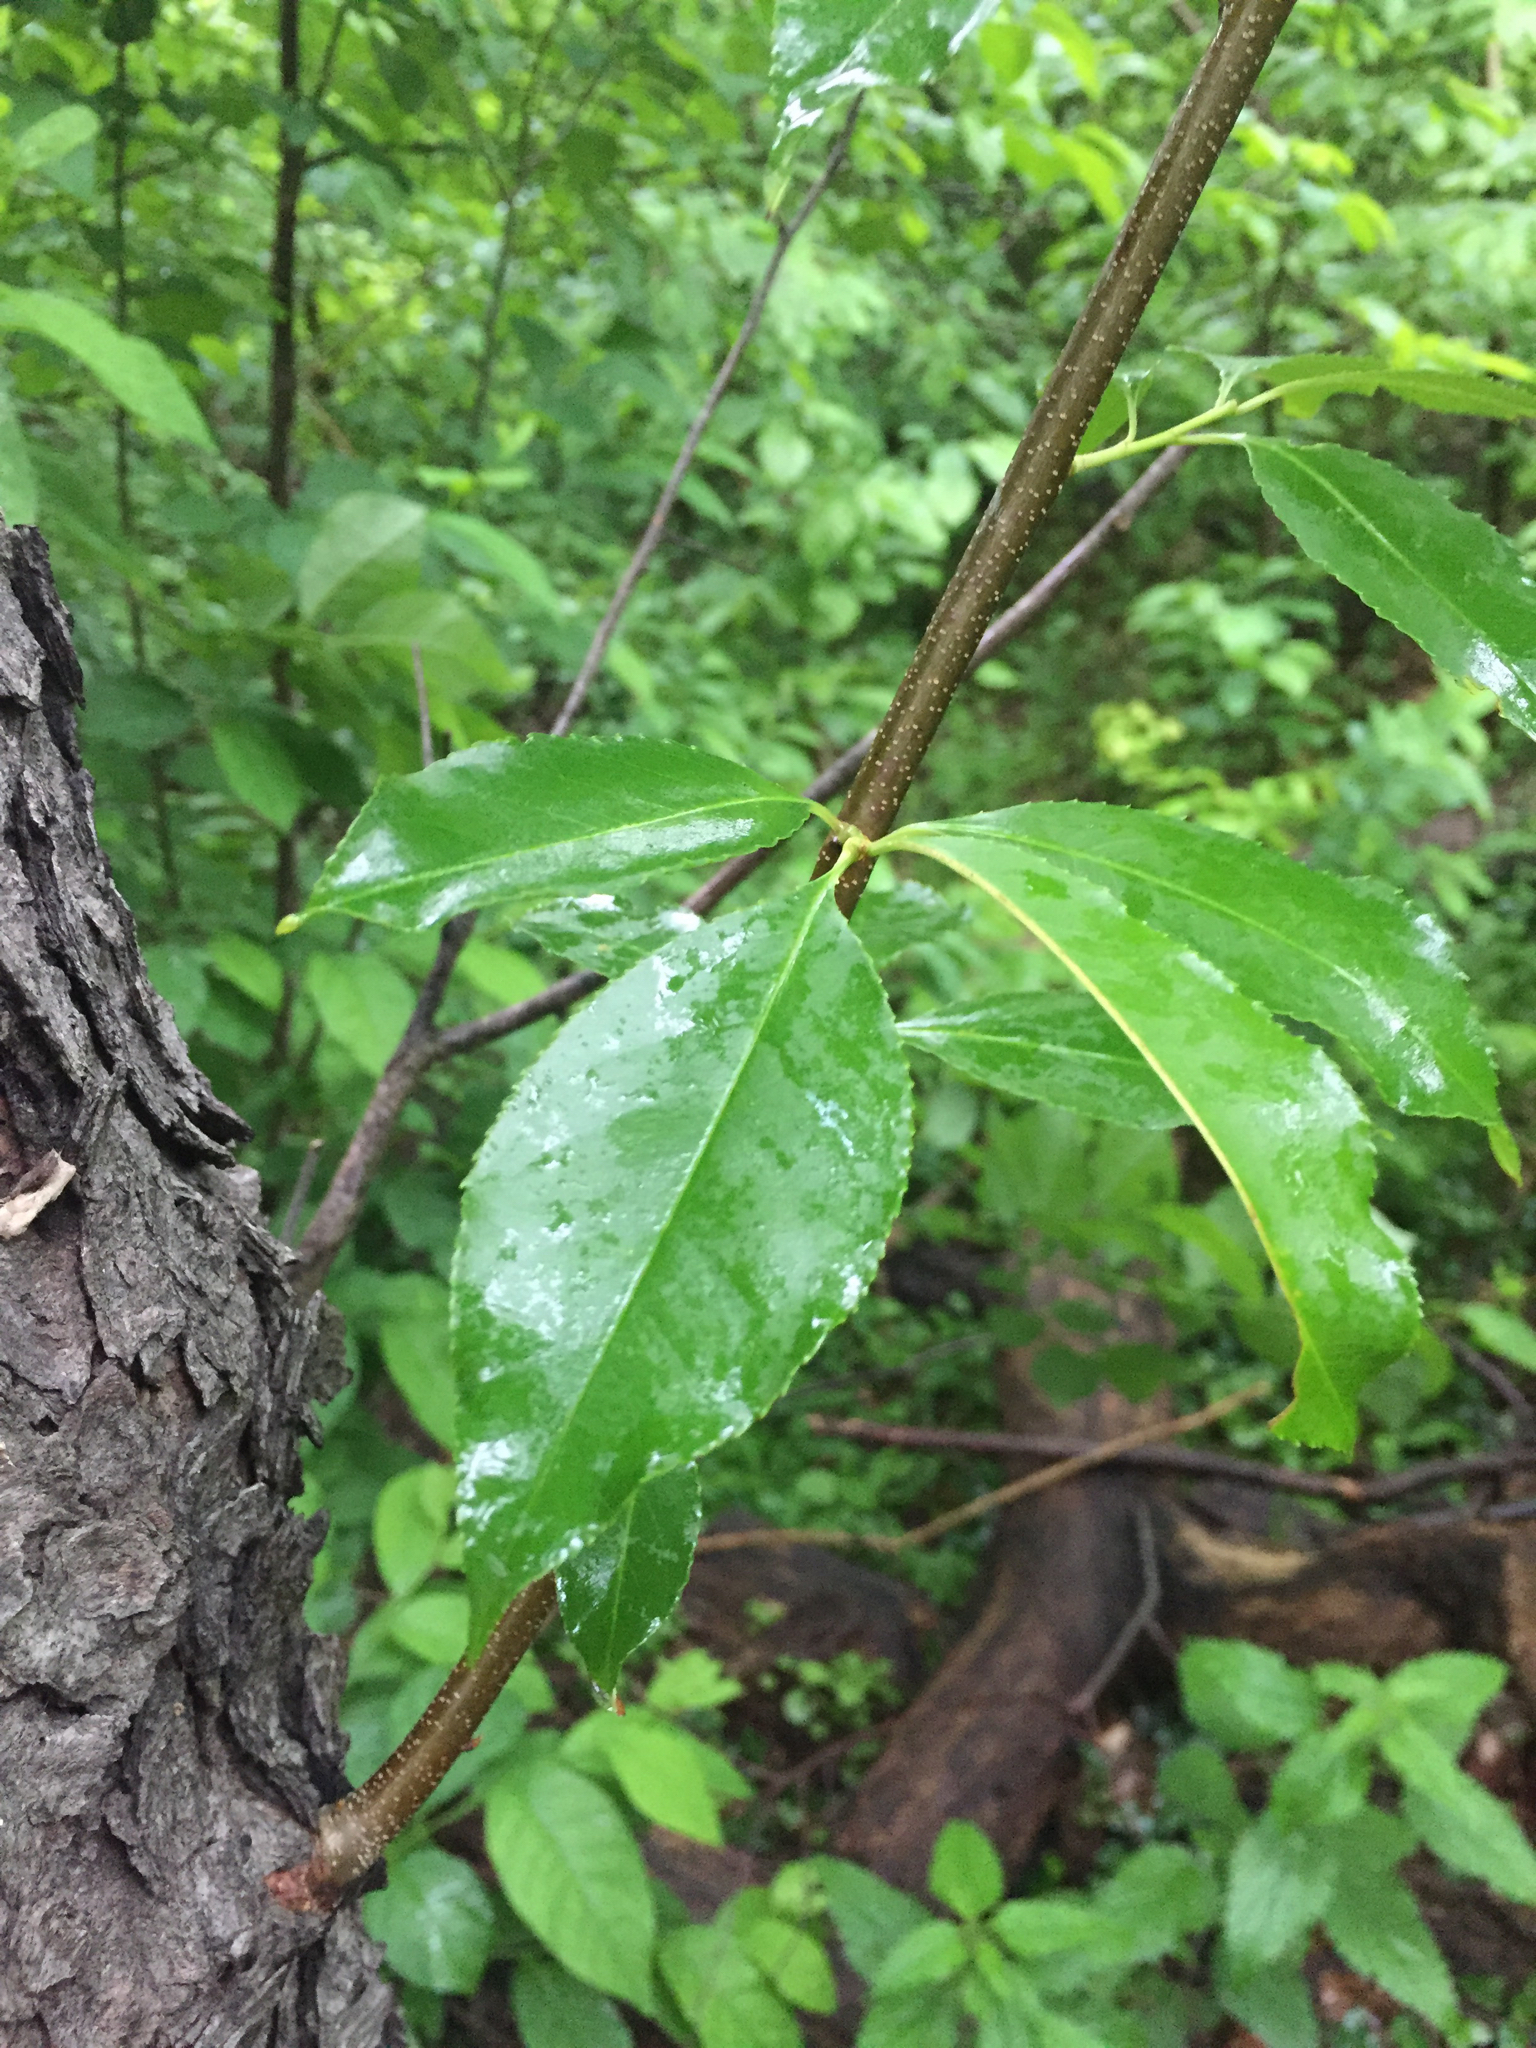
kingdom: Plantae
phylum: Tracheophyta
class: Magnoliopsida
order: Rosales
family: Rosaceae
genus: Prunus
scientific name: Prunus serotina
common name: Black cherry
